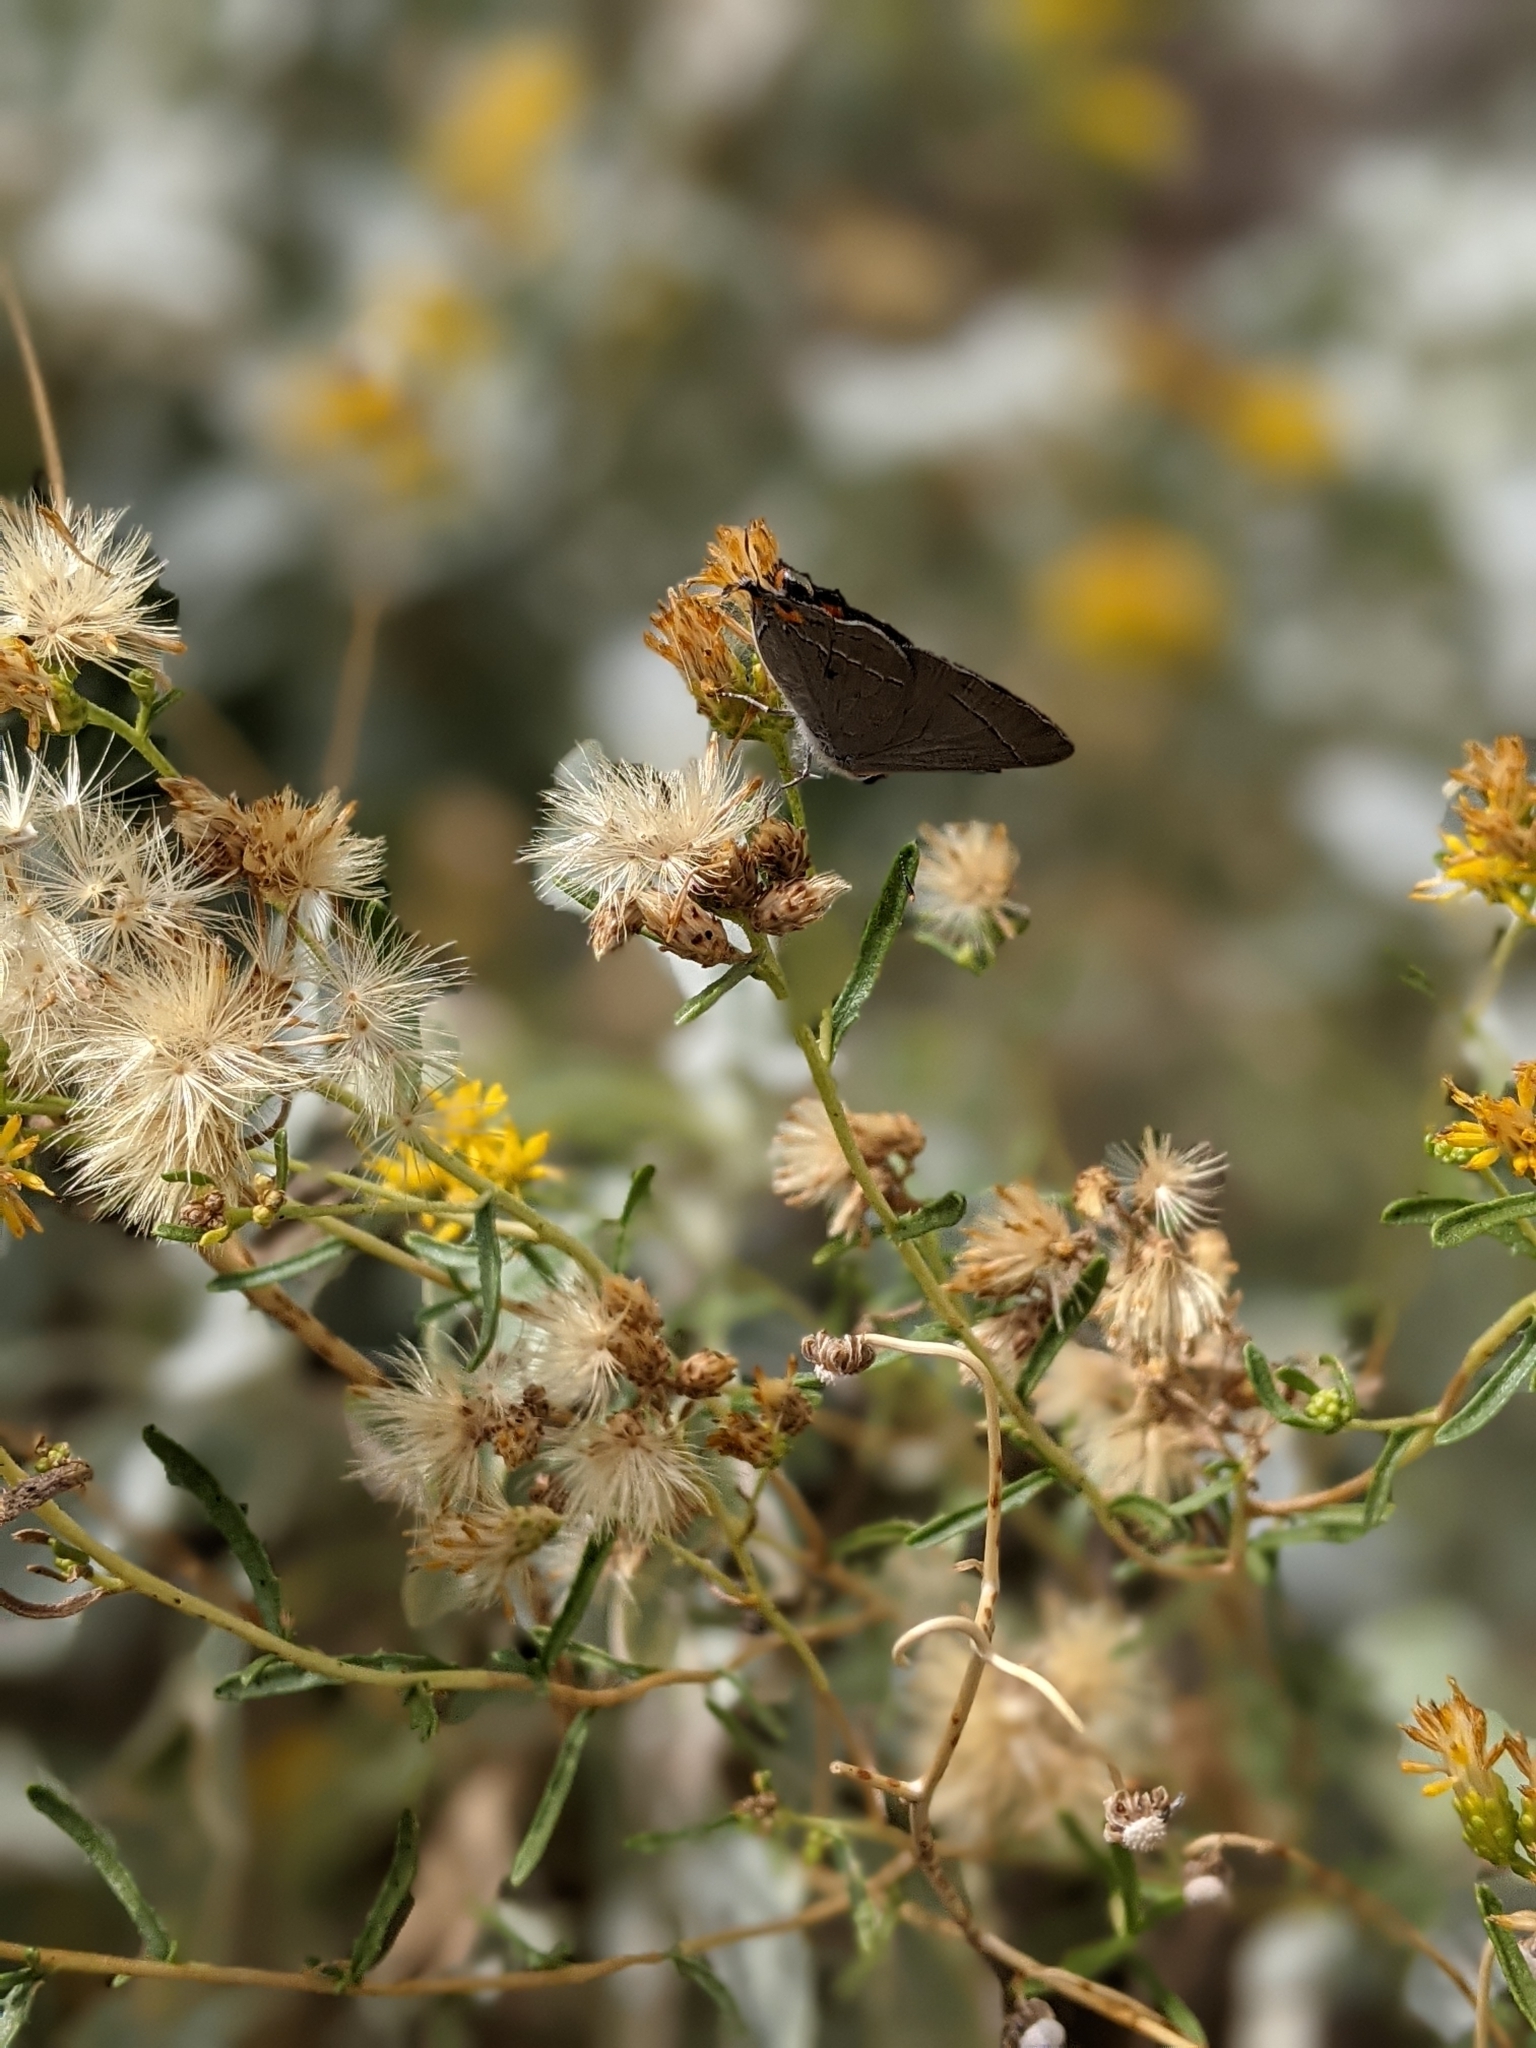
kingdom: Animalia
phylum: Arthropoda
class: Insecta
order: Lepidoptera
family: Lycaenidae
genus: Strymon
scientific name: Strymon melinus
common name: Gray hairstreak
